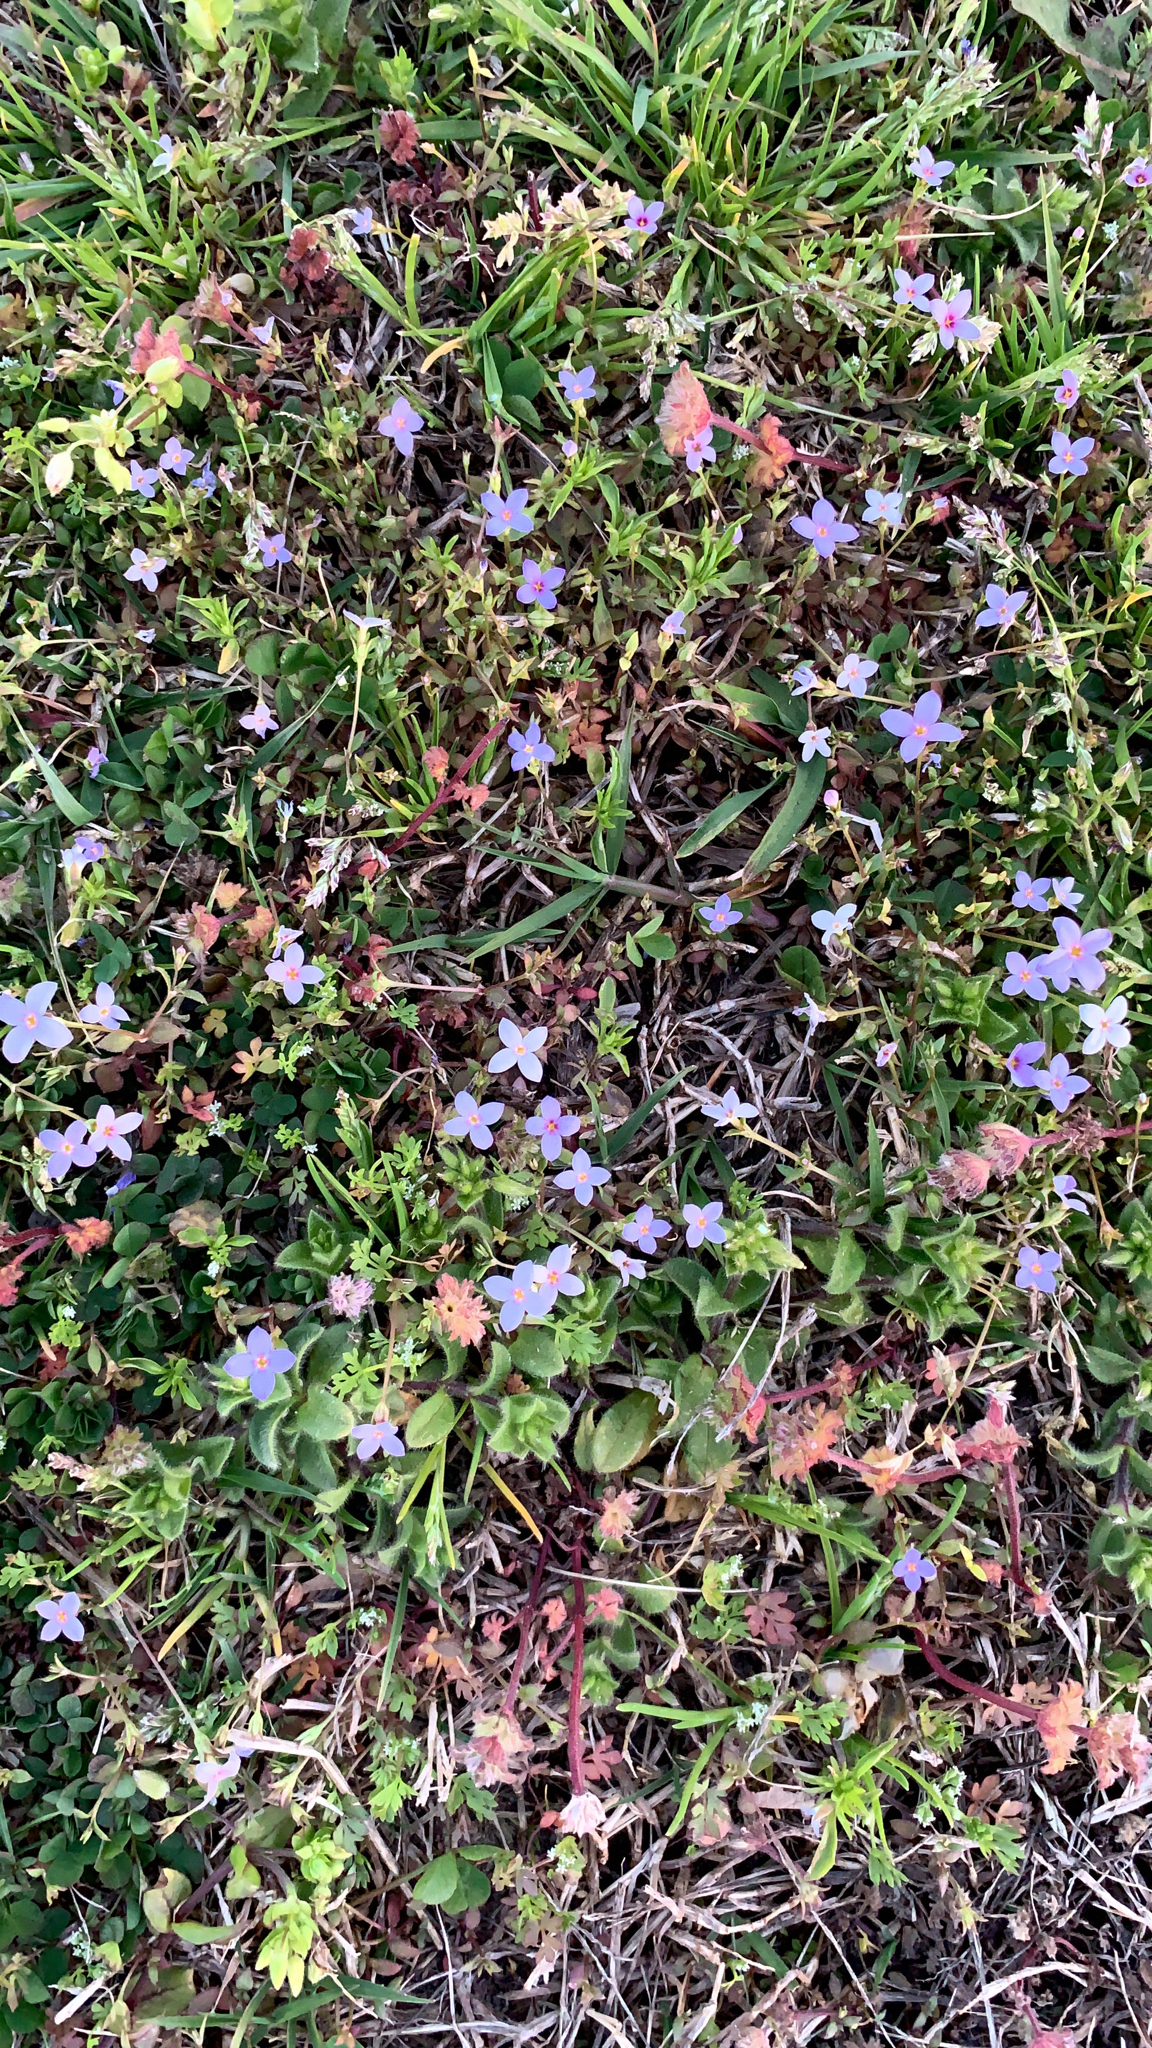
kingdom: Plantae
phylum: Tracheophyta
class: Magnoliopsida
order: Gentianales
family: Rubiaceae
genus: Houstonia
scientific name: Houstonia pusilla
